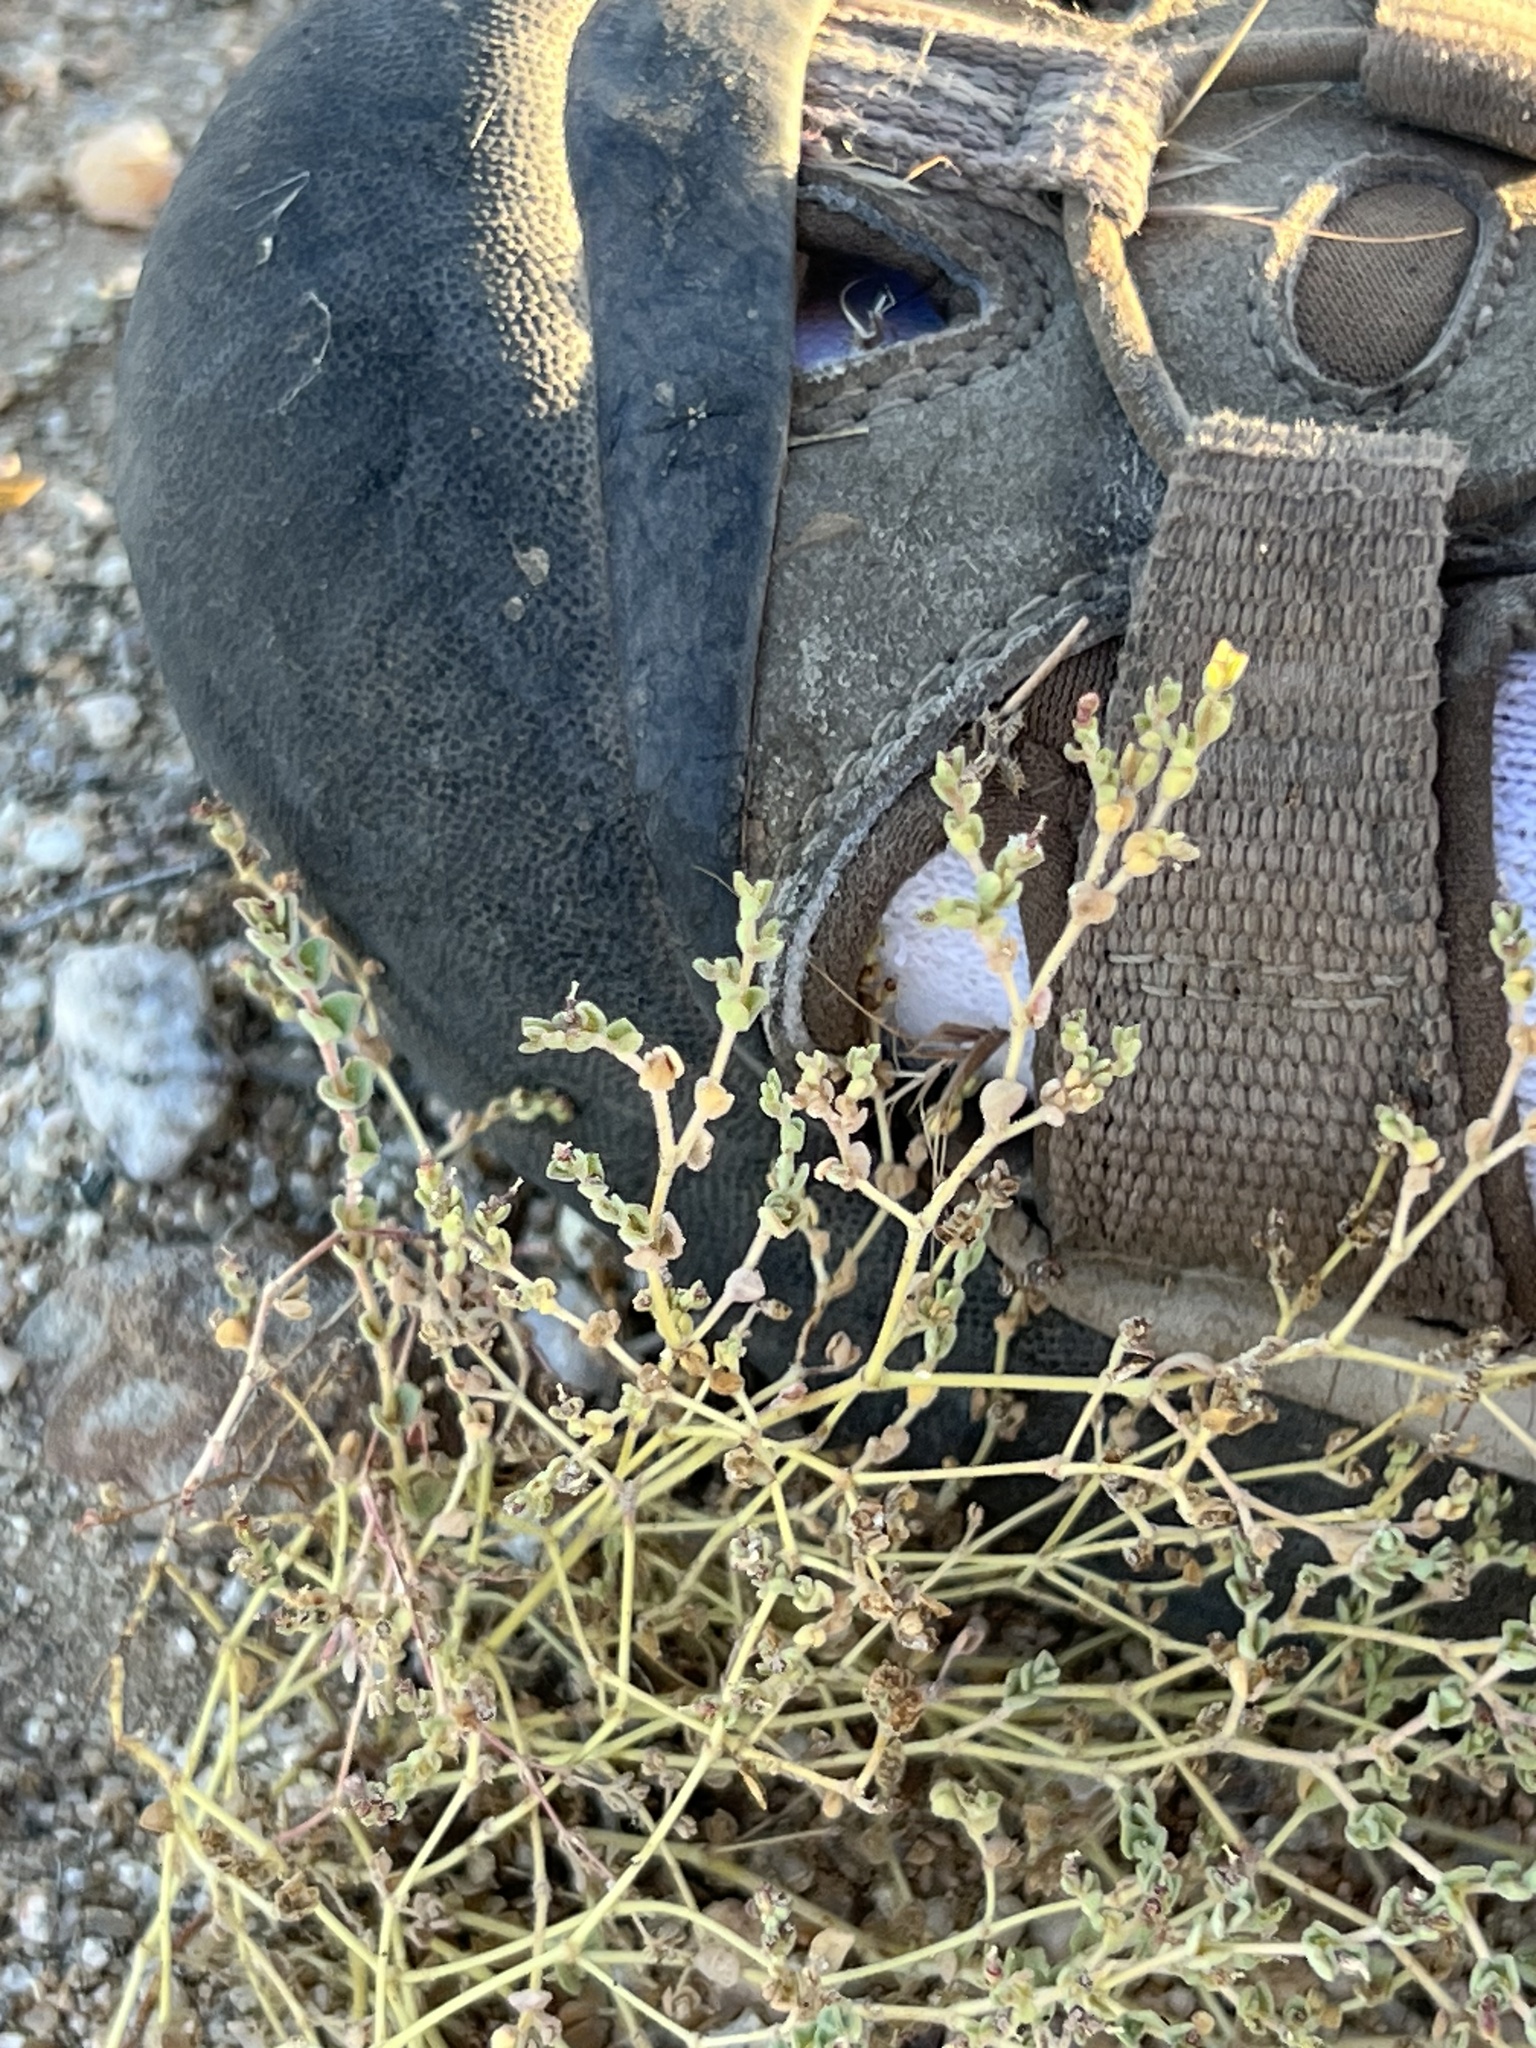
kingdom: Plantae
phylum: Tracheophyta
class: Magnoliopsida
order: Malpighiales
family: Euphorbiaceae
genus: Euphorbia
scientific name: Euphorbia polycarpa
